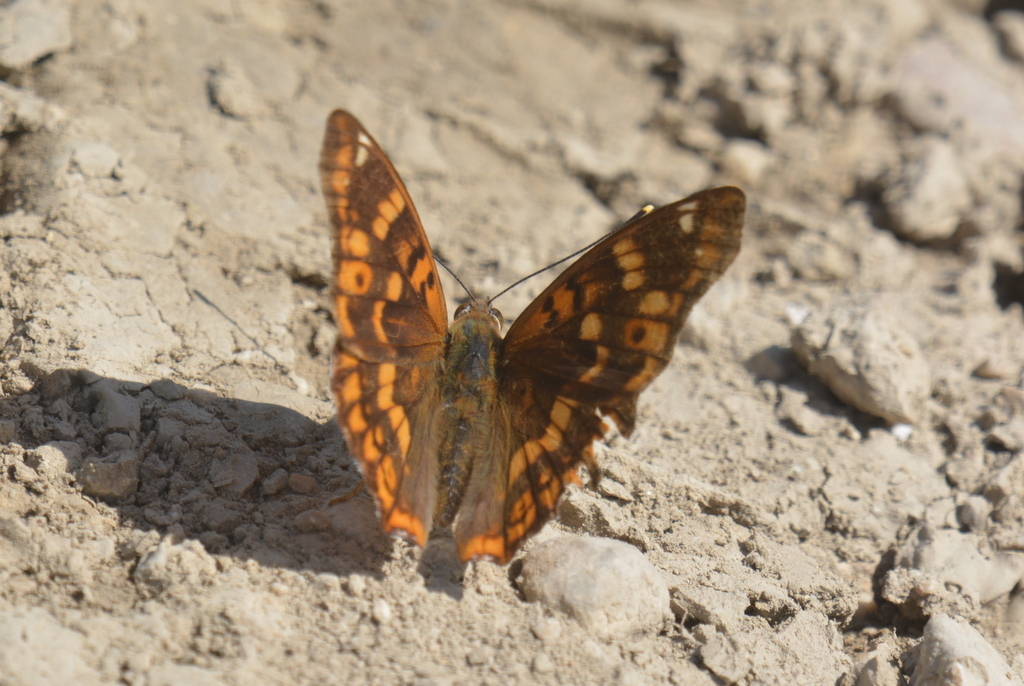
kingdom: Animalia
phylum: Arthropoda
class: Insecta
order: Lepidoptera
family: Nymphalidae
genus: Apatura
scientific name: Apatura ilia
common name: Lesser purple emperor
